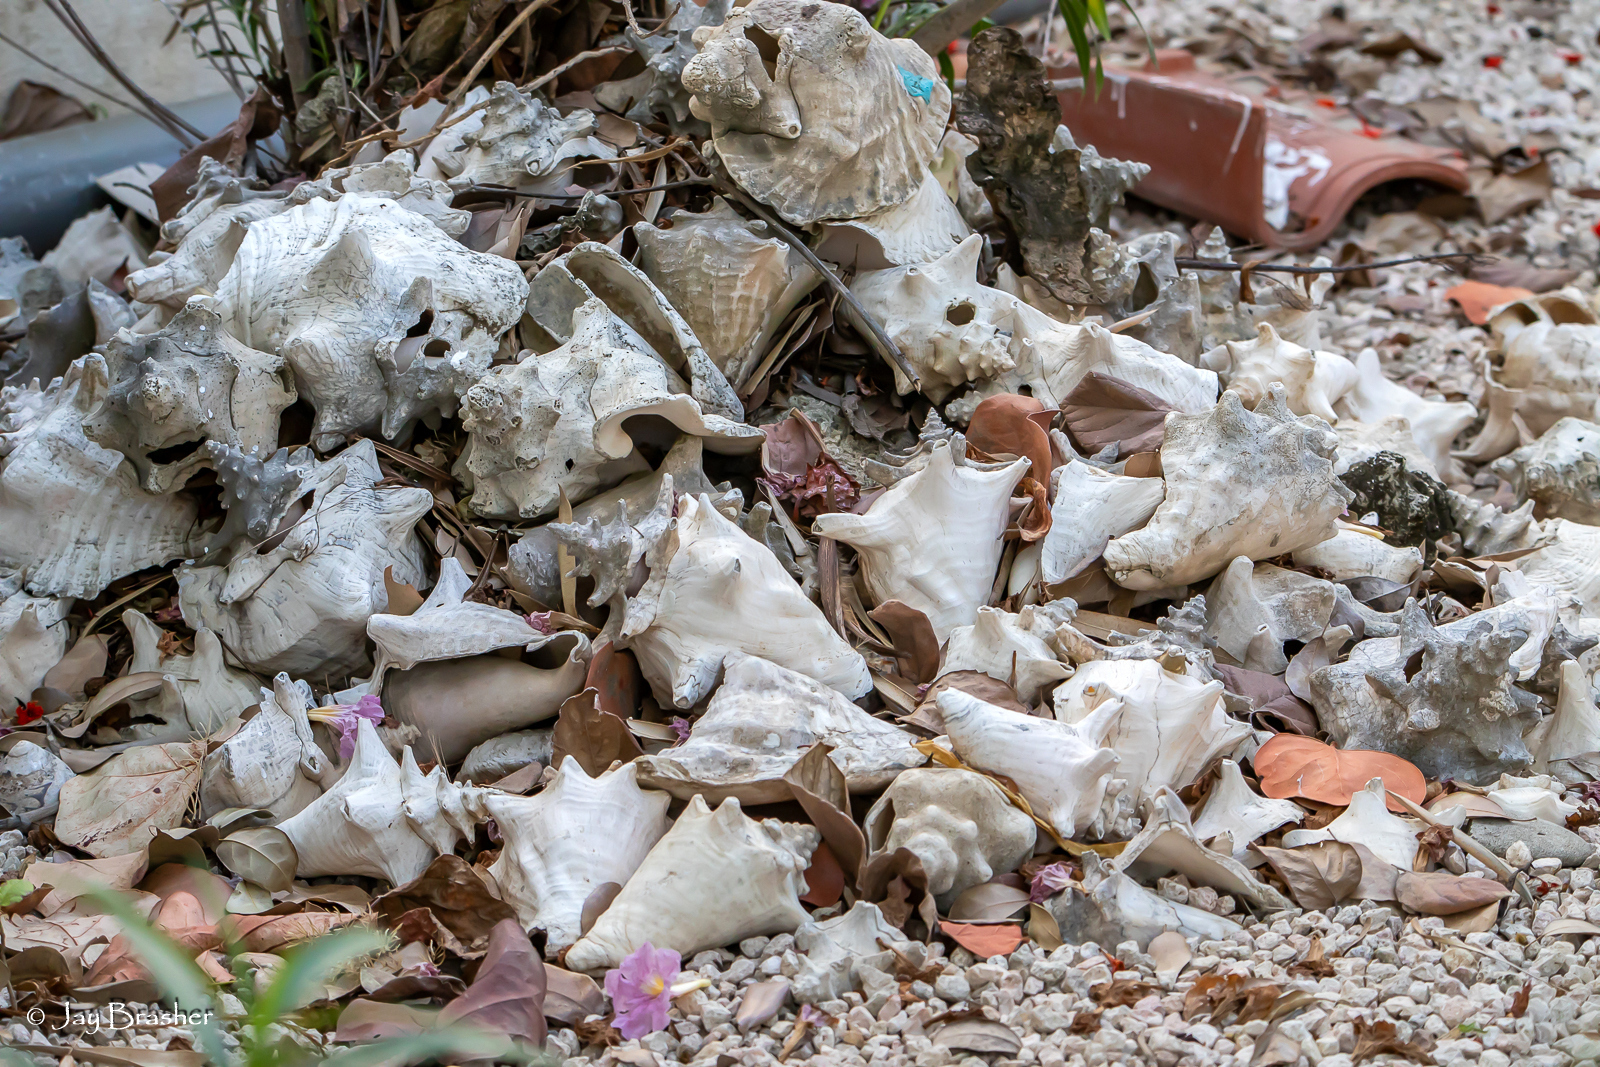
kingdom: Animalia
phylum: Mollusca
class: Gastropoda
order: Littorinimorpha
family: Strombidae
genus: Aliger
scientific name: Aliger gigas
